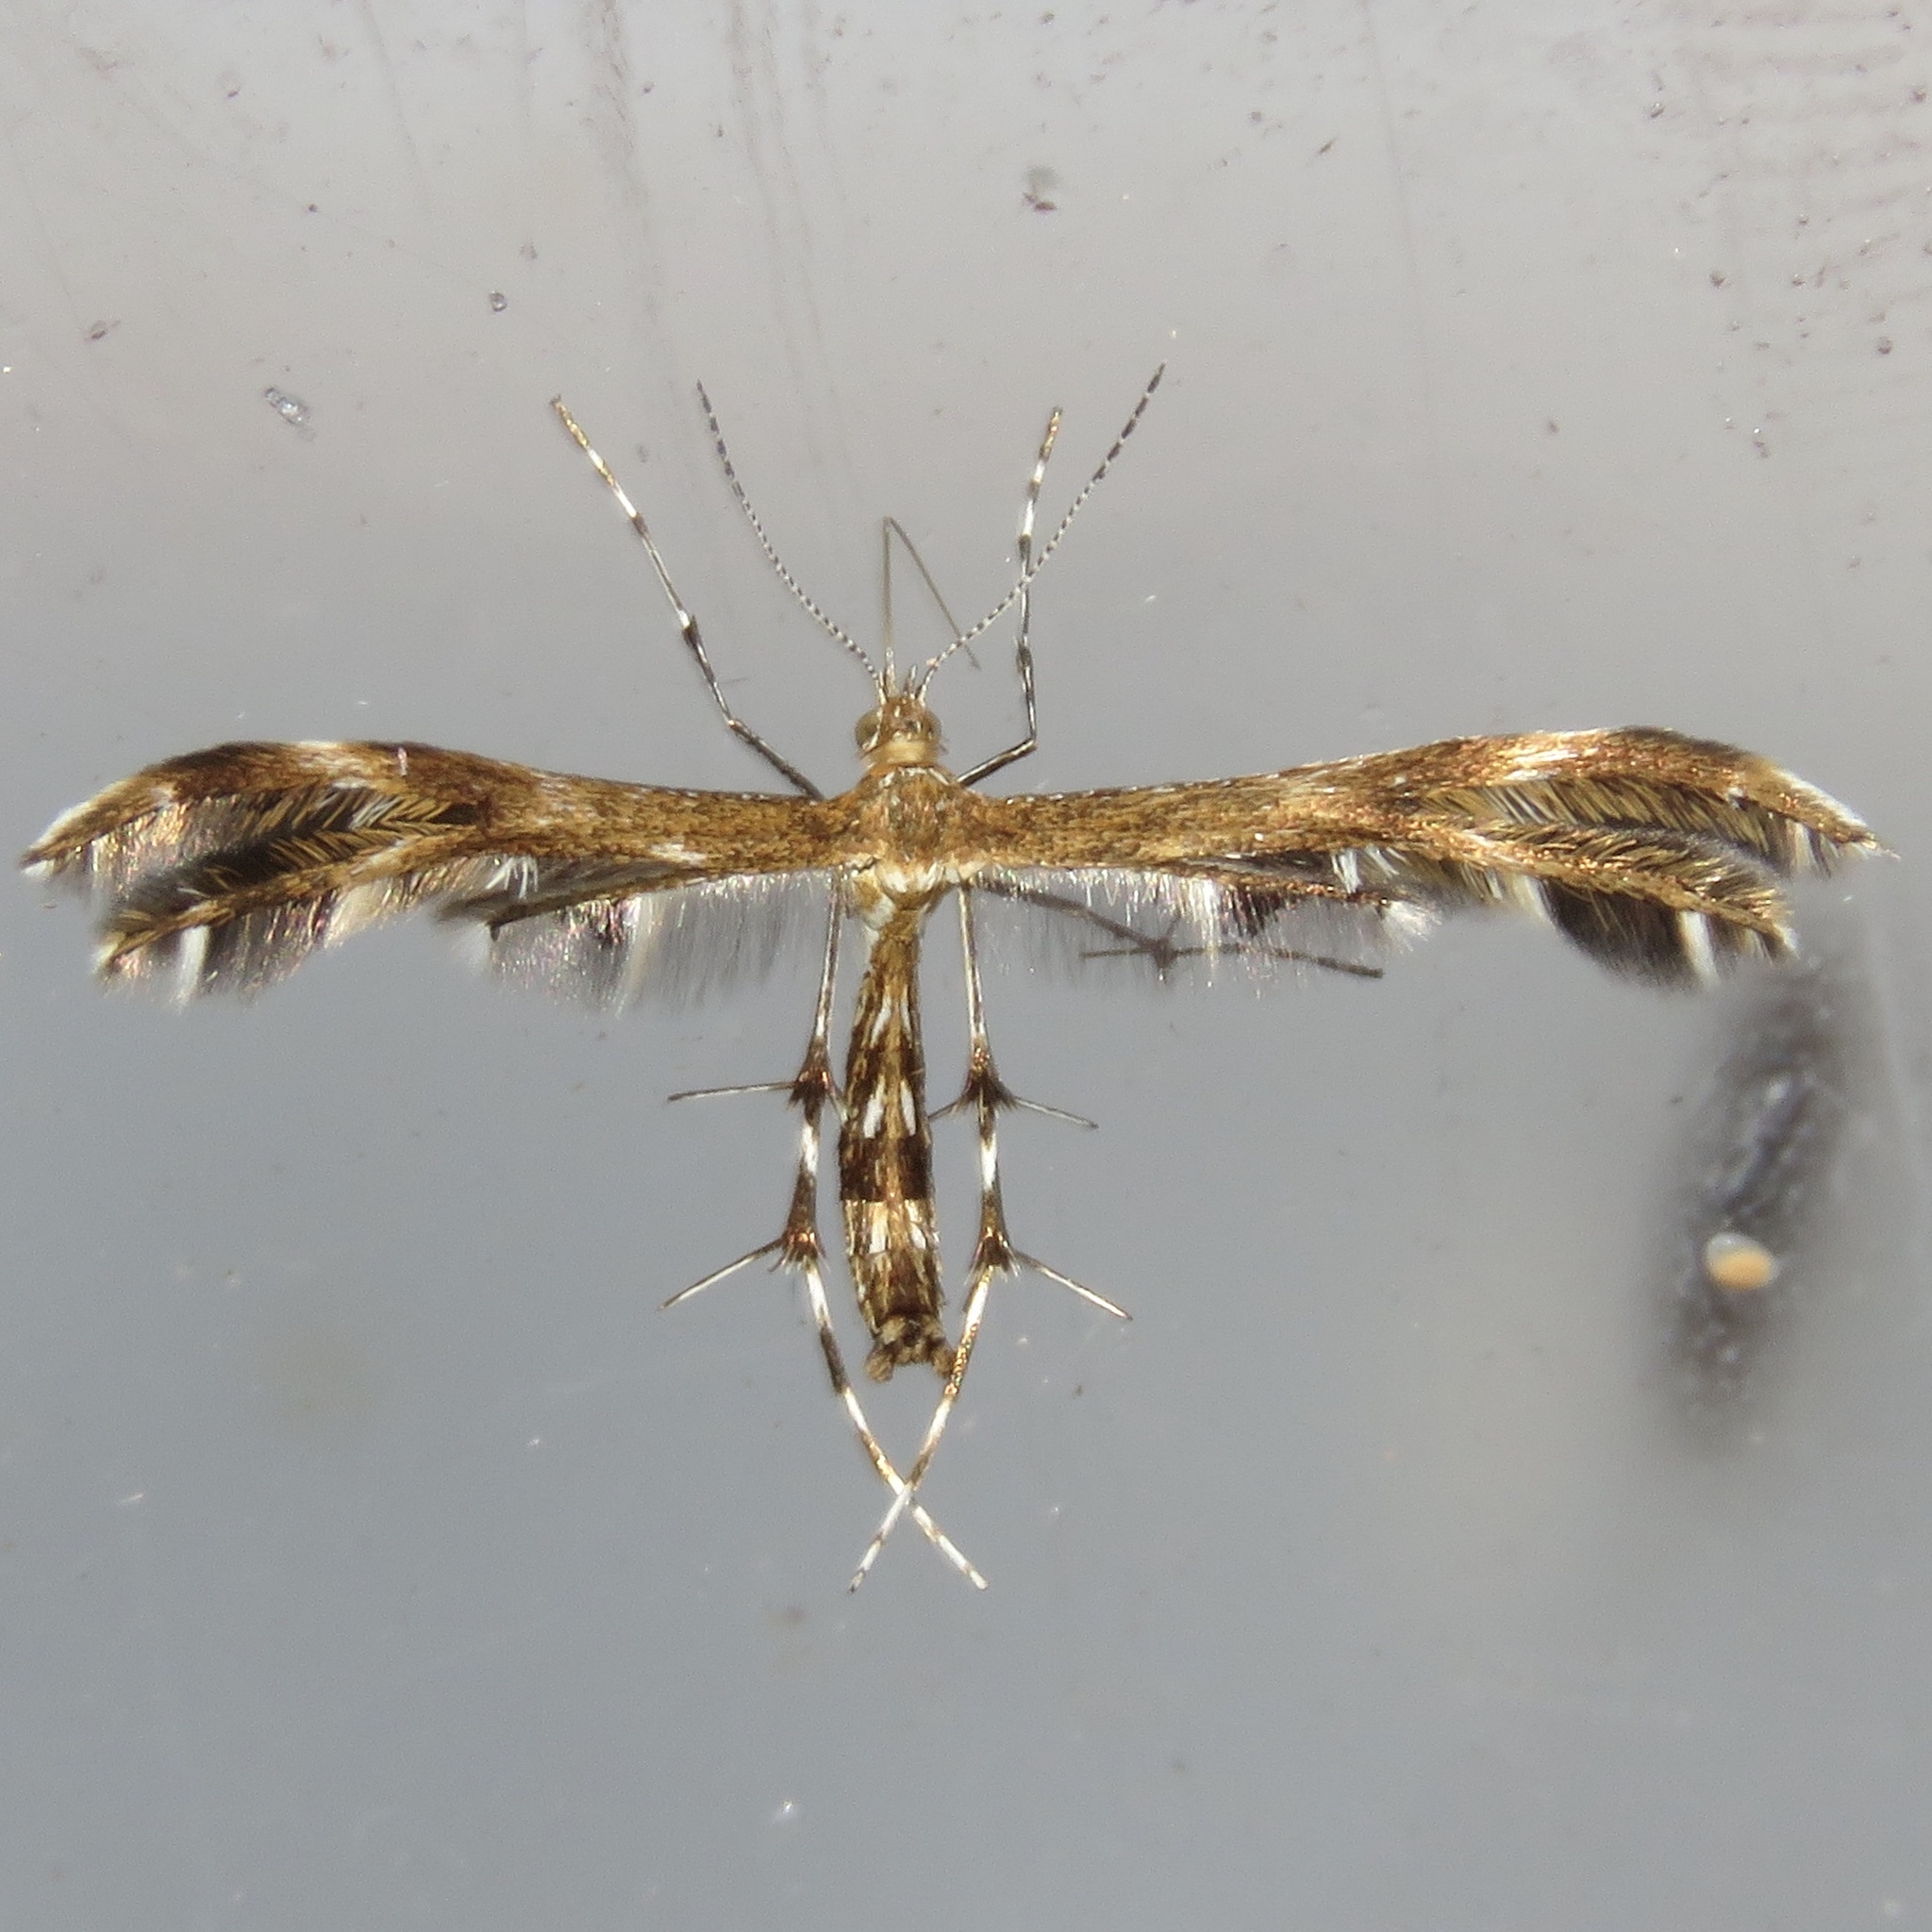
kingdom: Animalia
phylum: Arthropoda
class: Insecta
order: Lepidoptera
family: Pterophoridae
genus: Dejongia
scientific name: Dejongia lobidactylus
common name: Lobed plume moth
